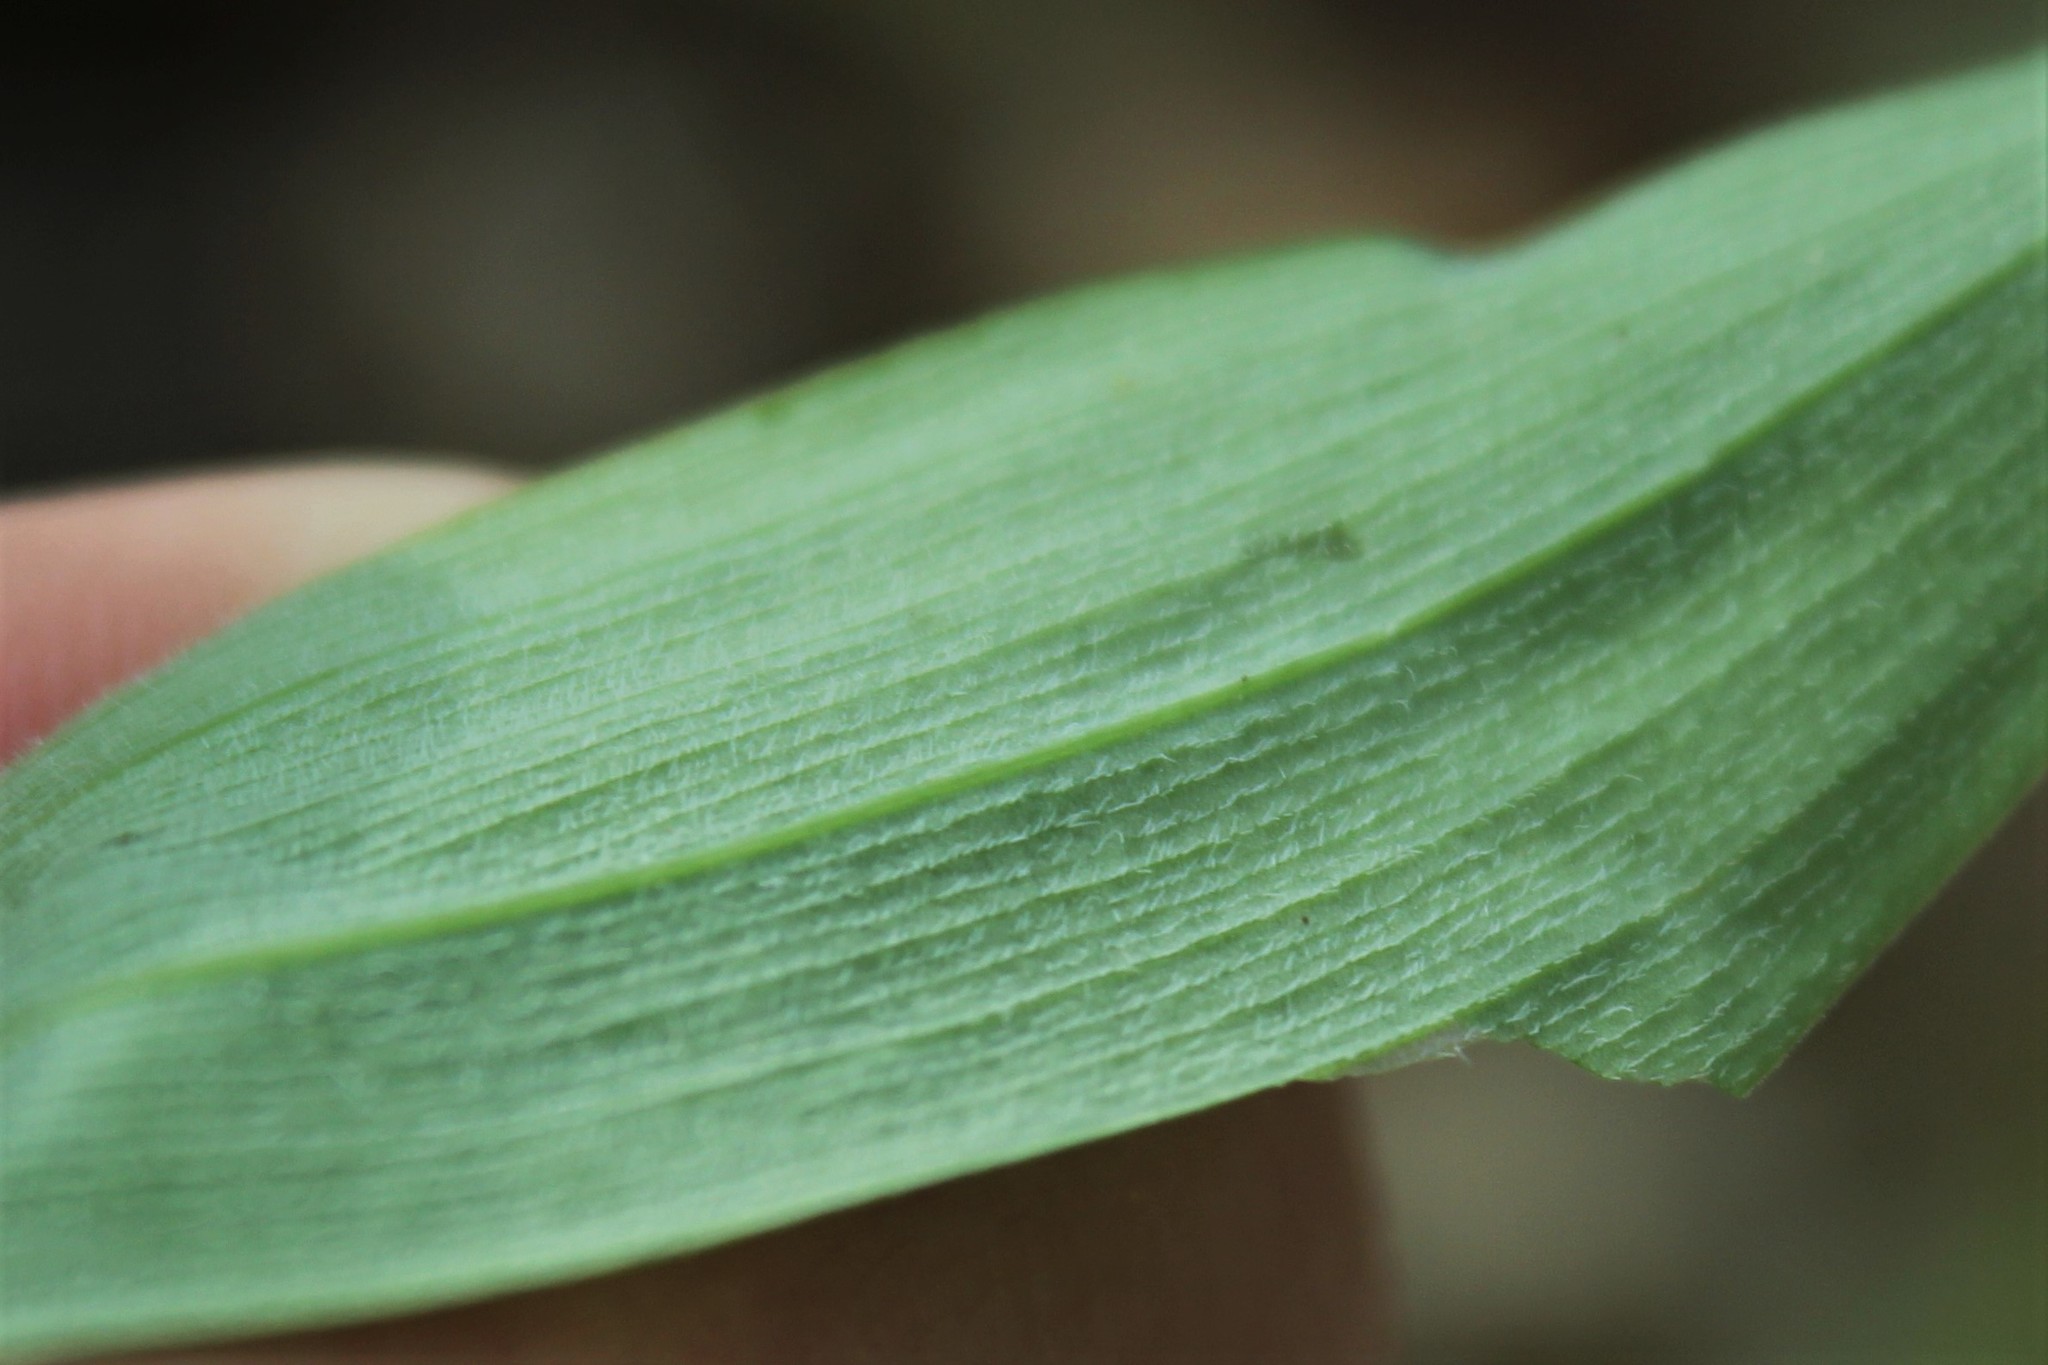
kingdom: Plantae
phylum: Tracheophyta
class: Liliopsida
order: Asparagales
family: Asparagaceae
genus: Polygonatum
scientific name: Polygonatum pubescens
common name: Downy solomon's seal
